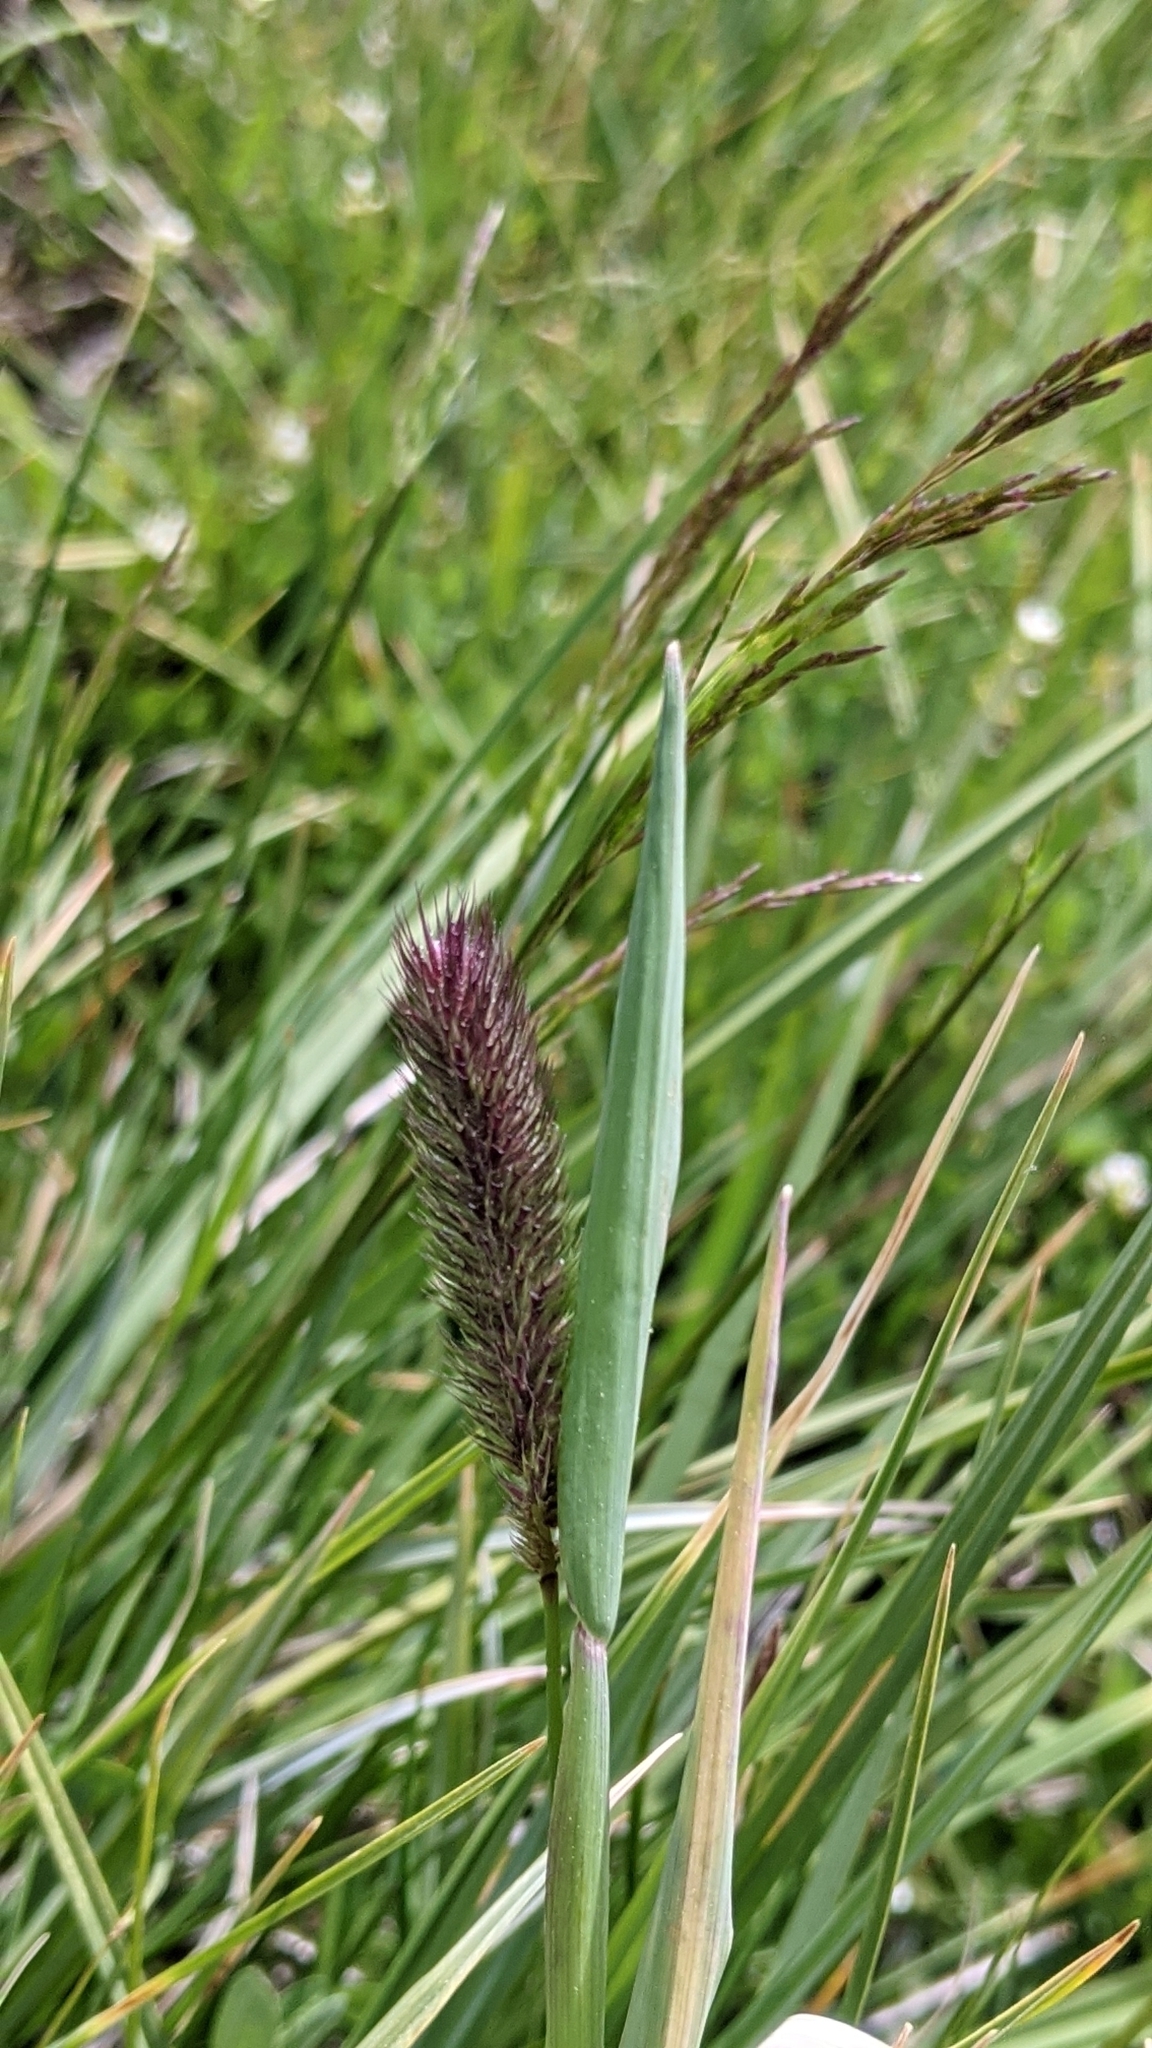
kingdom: Plantae
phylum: Tracheophyta
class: Liliopsida
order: Poales
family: Poaceae
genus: Phleum
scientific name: Phleum alpinum
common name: Alpine cat's-tail
